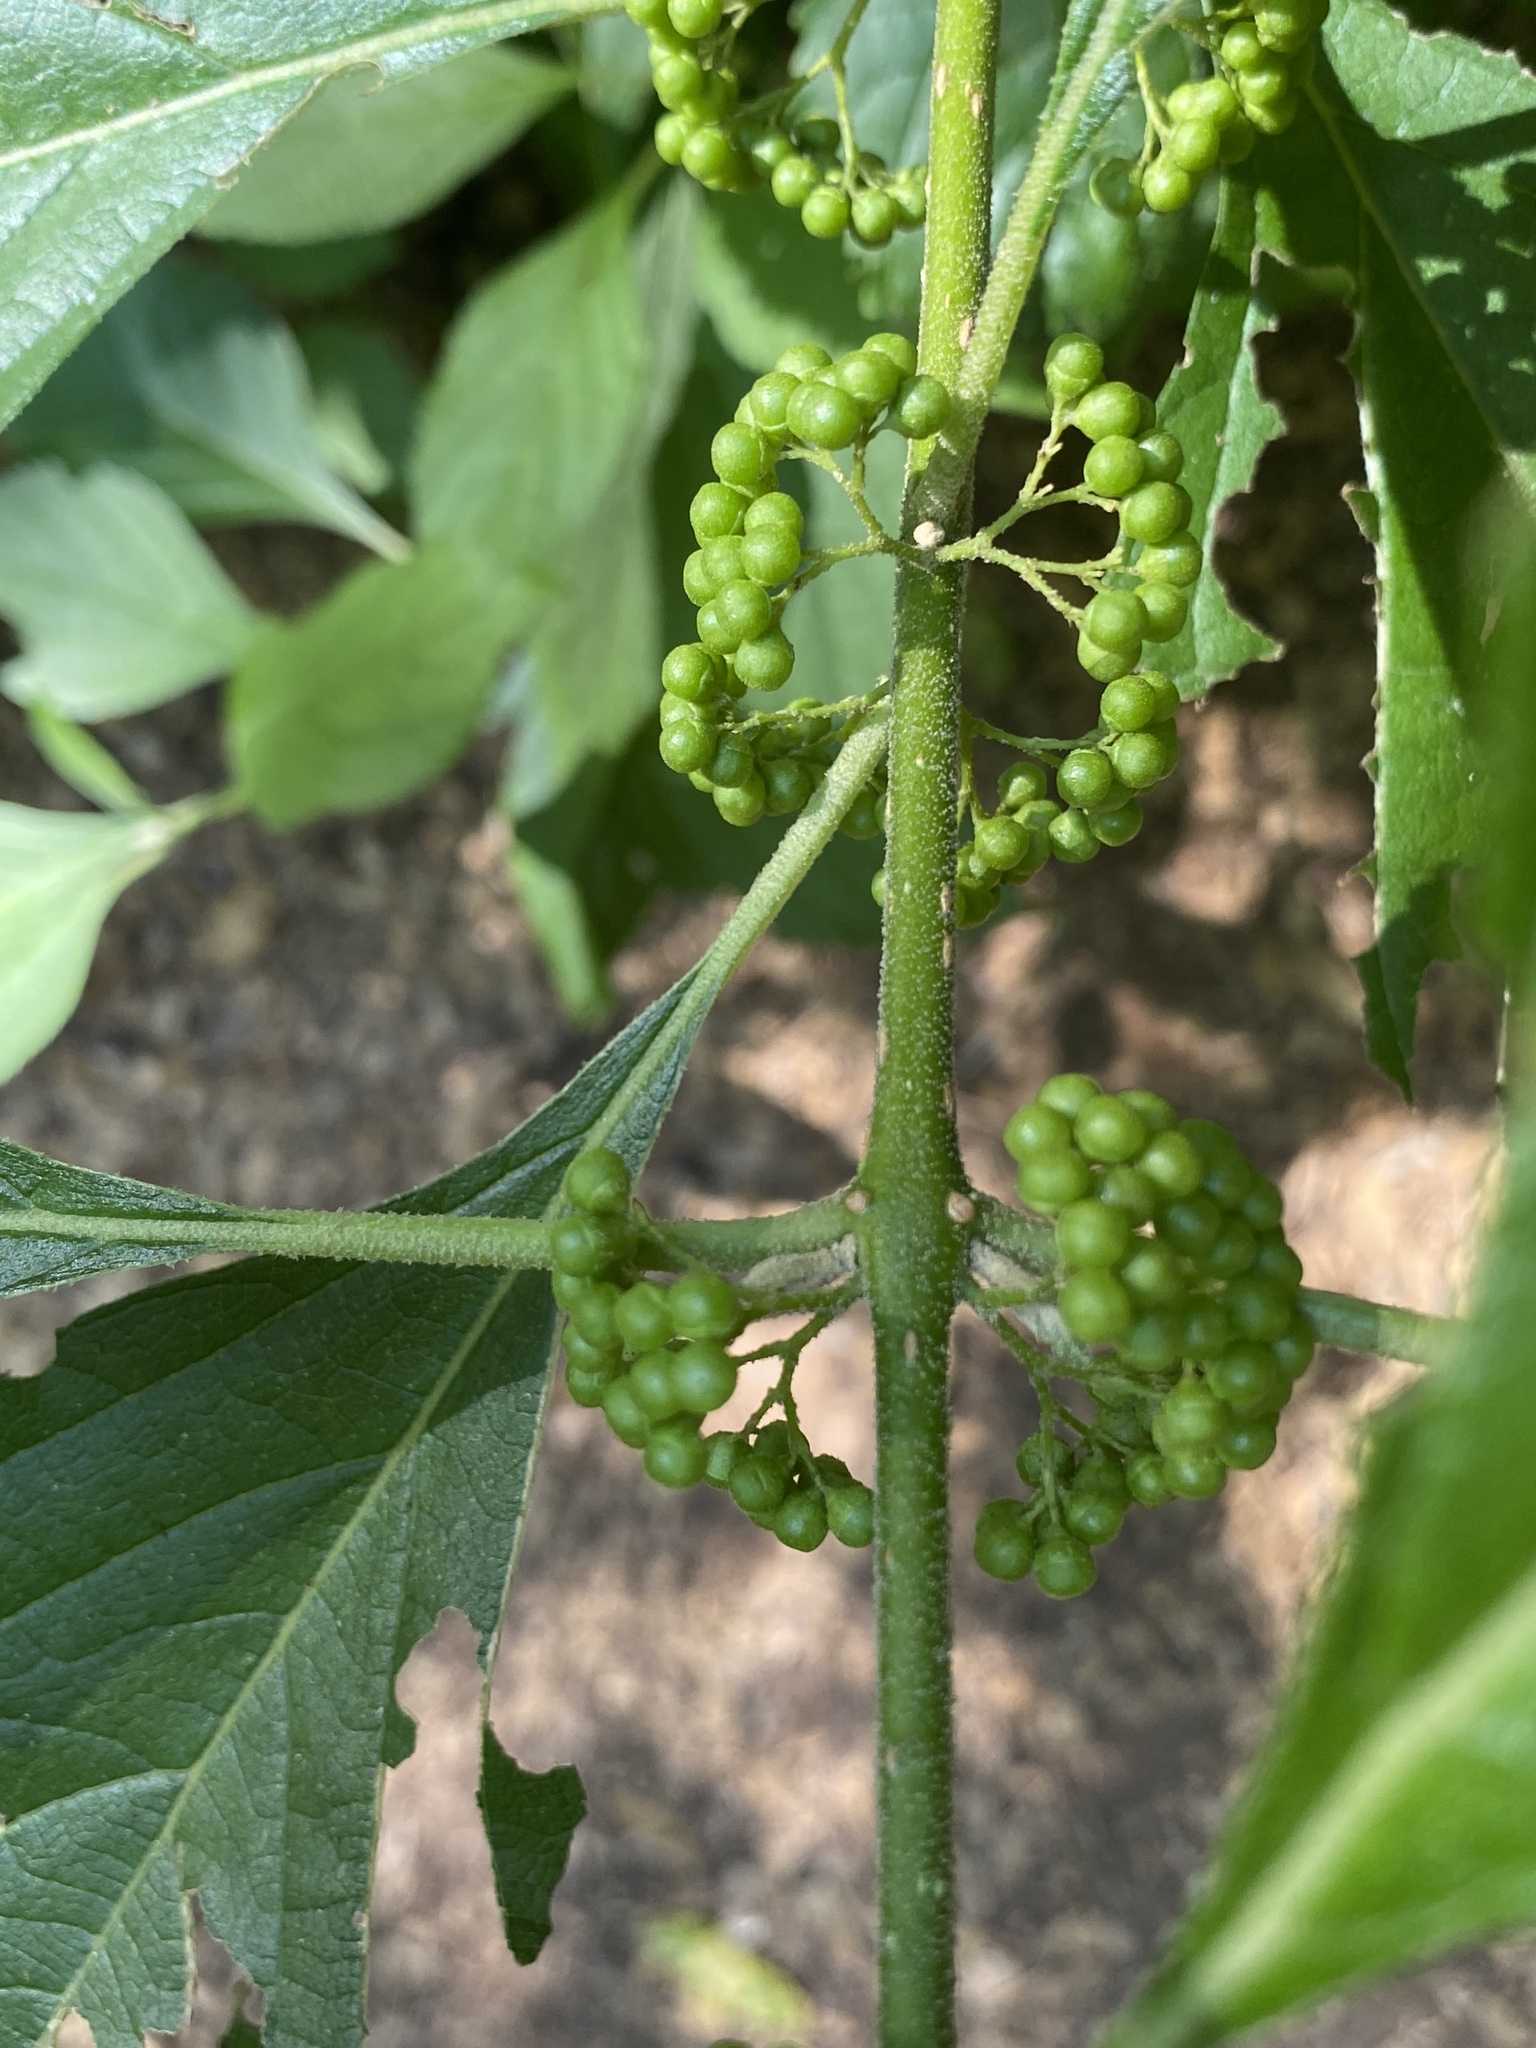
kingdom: Plantae
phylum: Tracheophyta
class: Magnoliopsida
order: Lamiales
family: Lamiaceae
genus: Callicarpa
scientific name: Callicarpa americana
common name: American beautyberry
